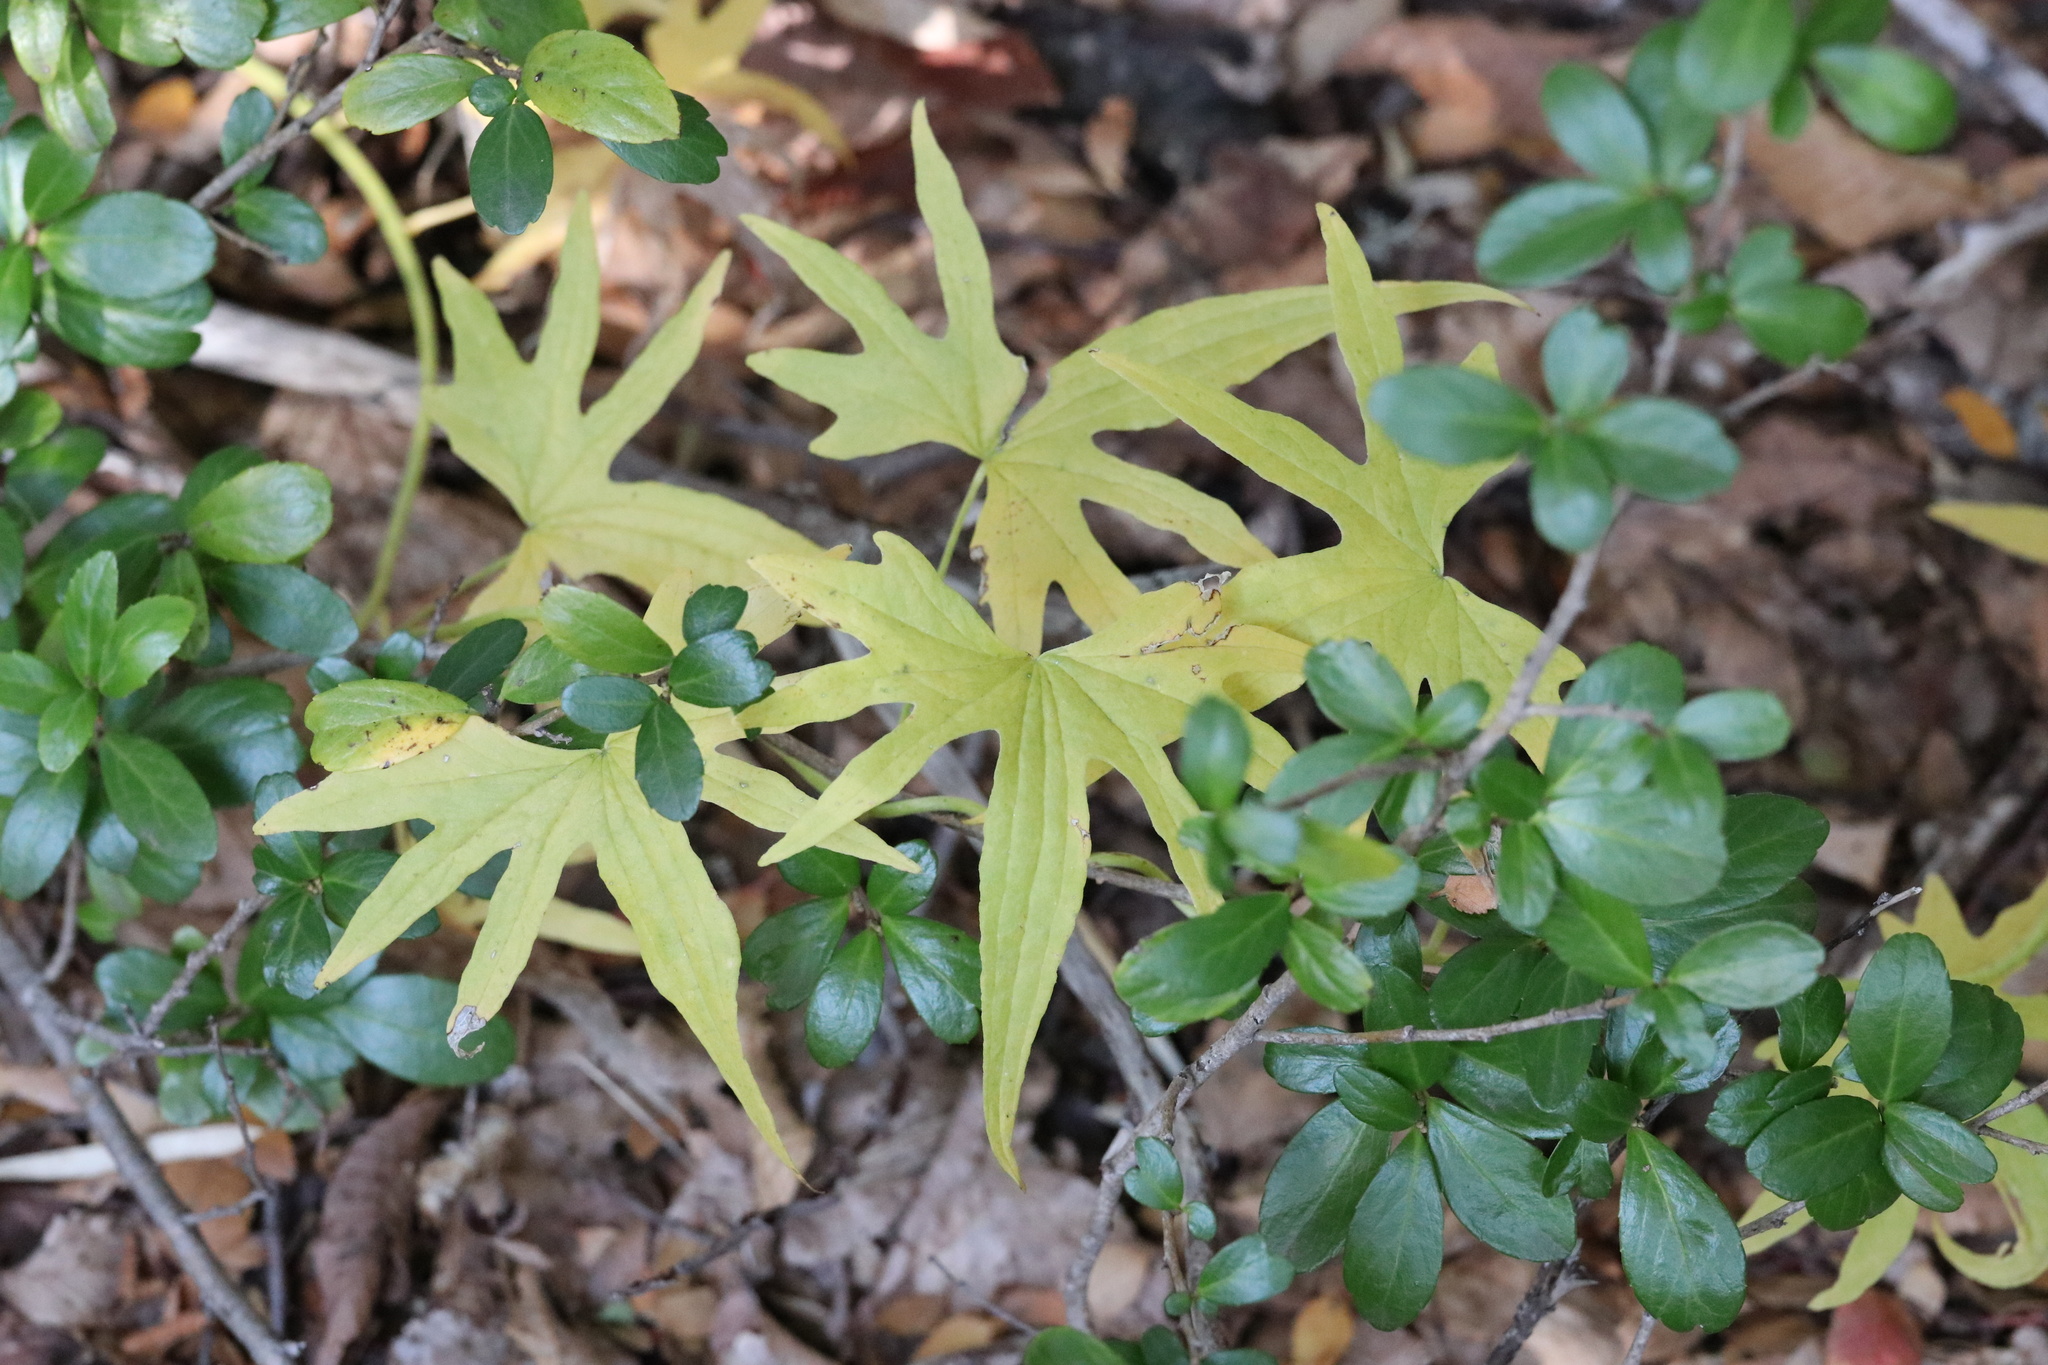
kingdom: Plantae
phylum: Tracheophyta
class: Liliopsida
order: Dioscoreales
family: Dioscoreaceae
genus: Dioscorea
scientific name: Dioscorea brachybotrya
